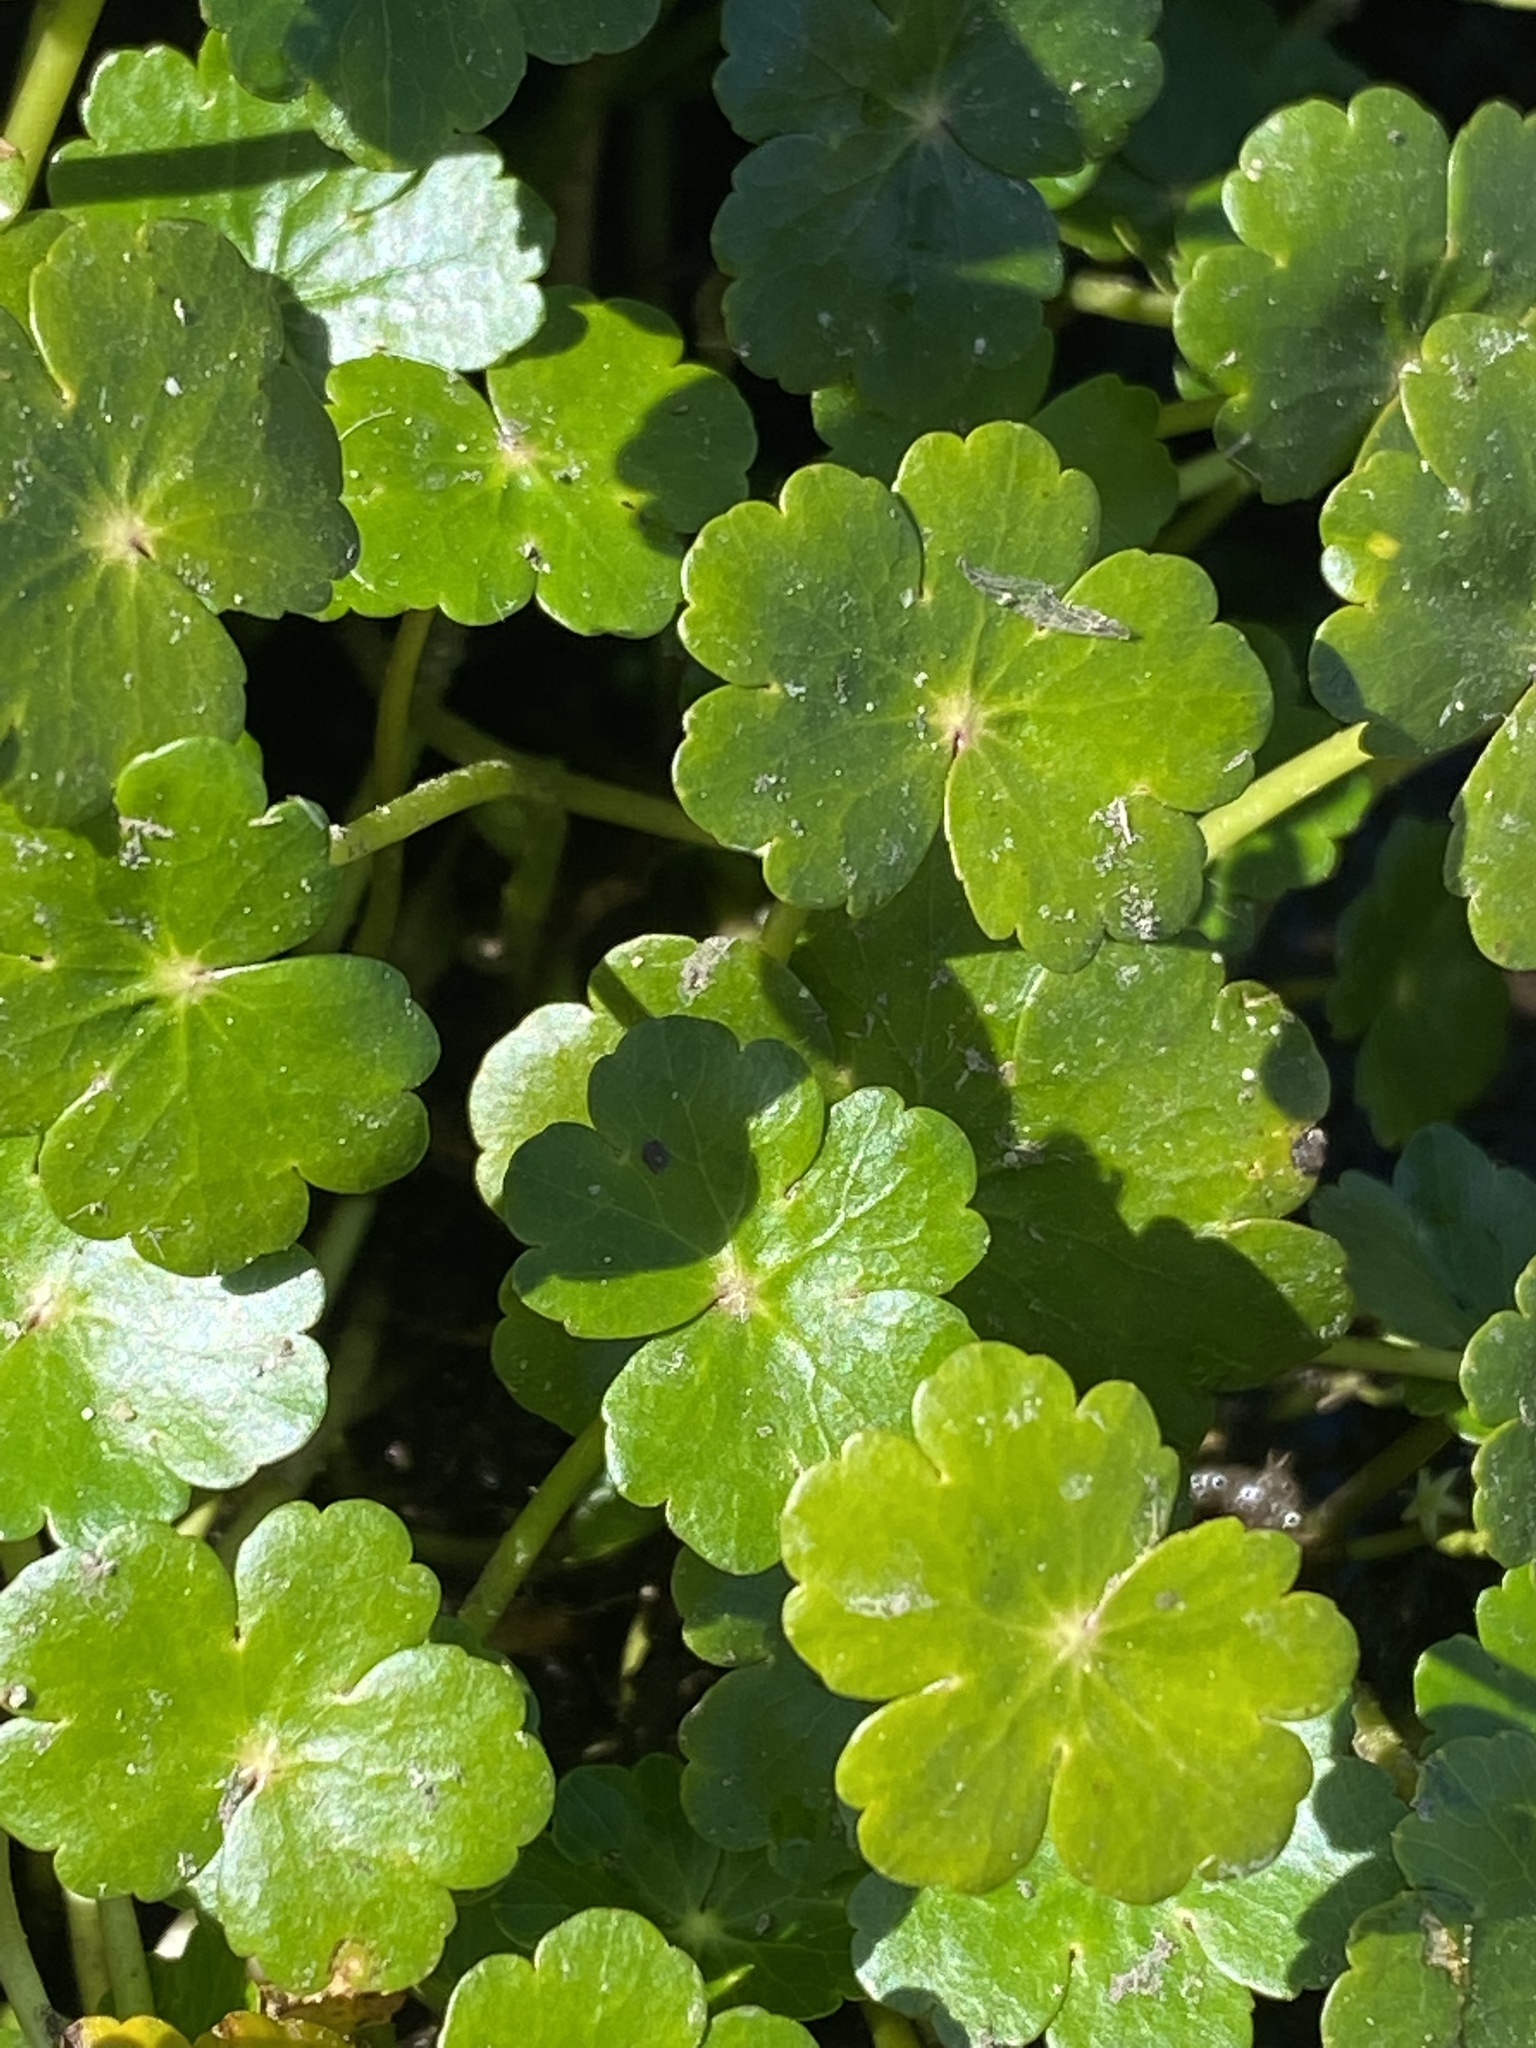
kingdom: Plantae
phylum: Tracheophyta
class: Magnoliopsida
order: Apiales
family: Araliaceae
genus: Hydrocotyle
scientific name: Hydrocotyle ranunculoides
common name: Floating pennywort
